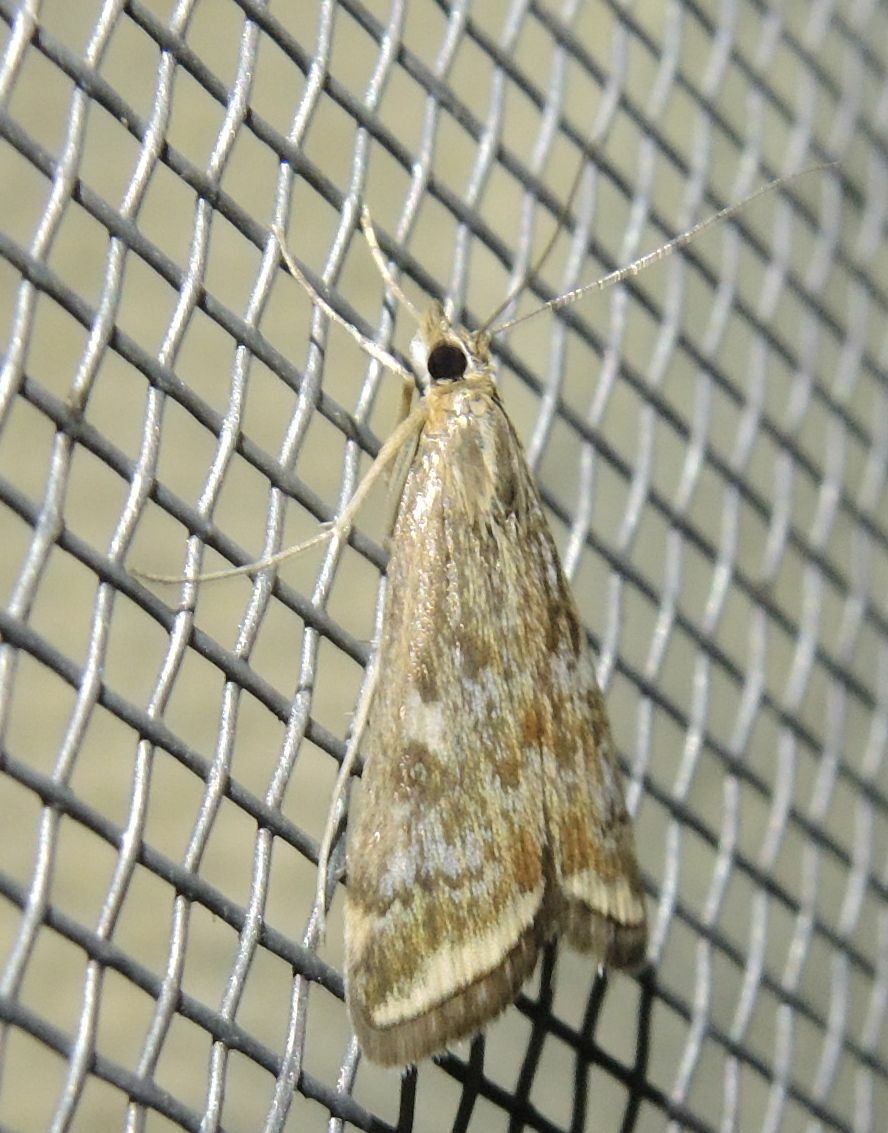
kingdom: Animalia
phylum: Arthropoda
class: Insecta
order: Lepidoptera
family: Crambidae
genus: Loxostege
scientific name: Loxostege sticticalis
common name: Crambid moth
